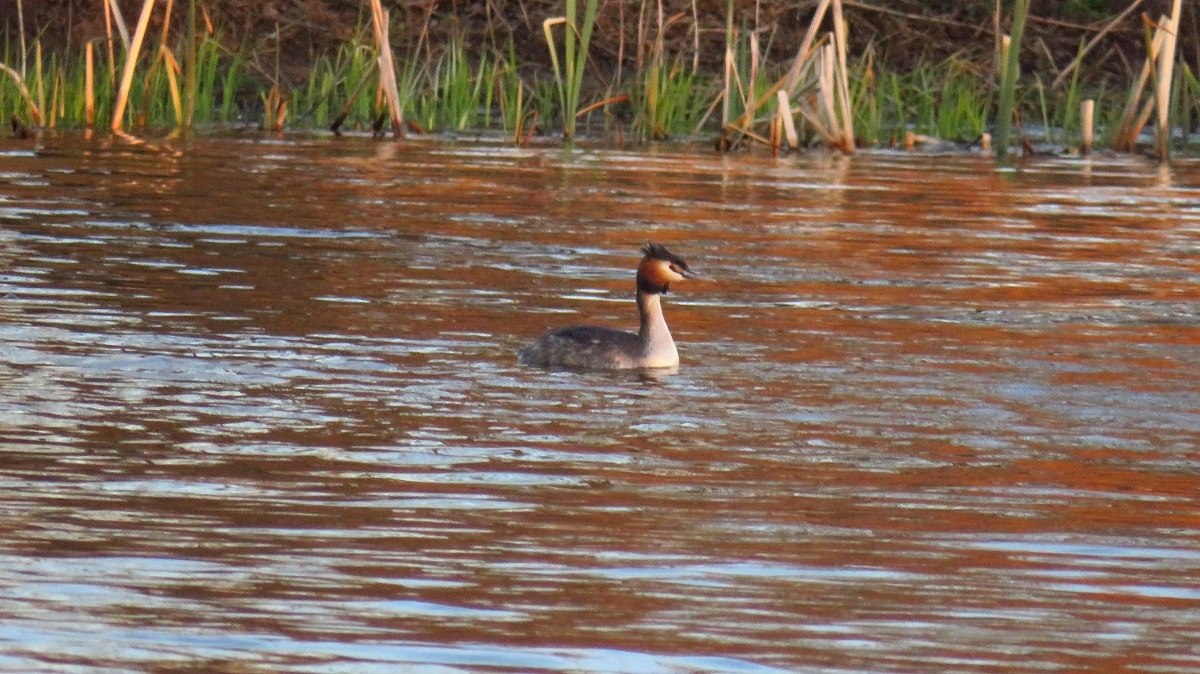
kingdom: Animalia
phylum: Chordata
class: Aves
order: Podicipediformes
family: Podicipedidae
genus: Podiceps
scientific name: Podiceps cristatus
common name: Great crested grebe
